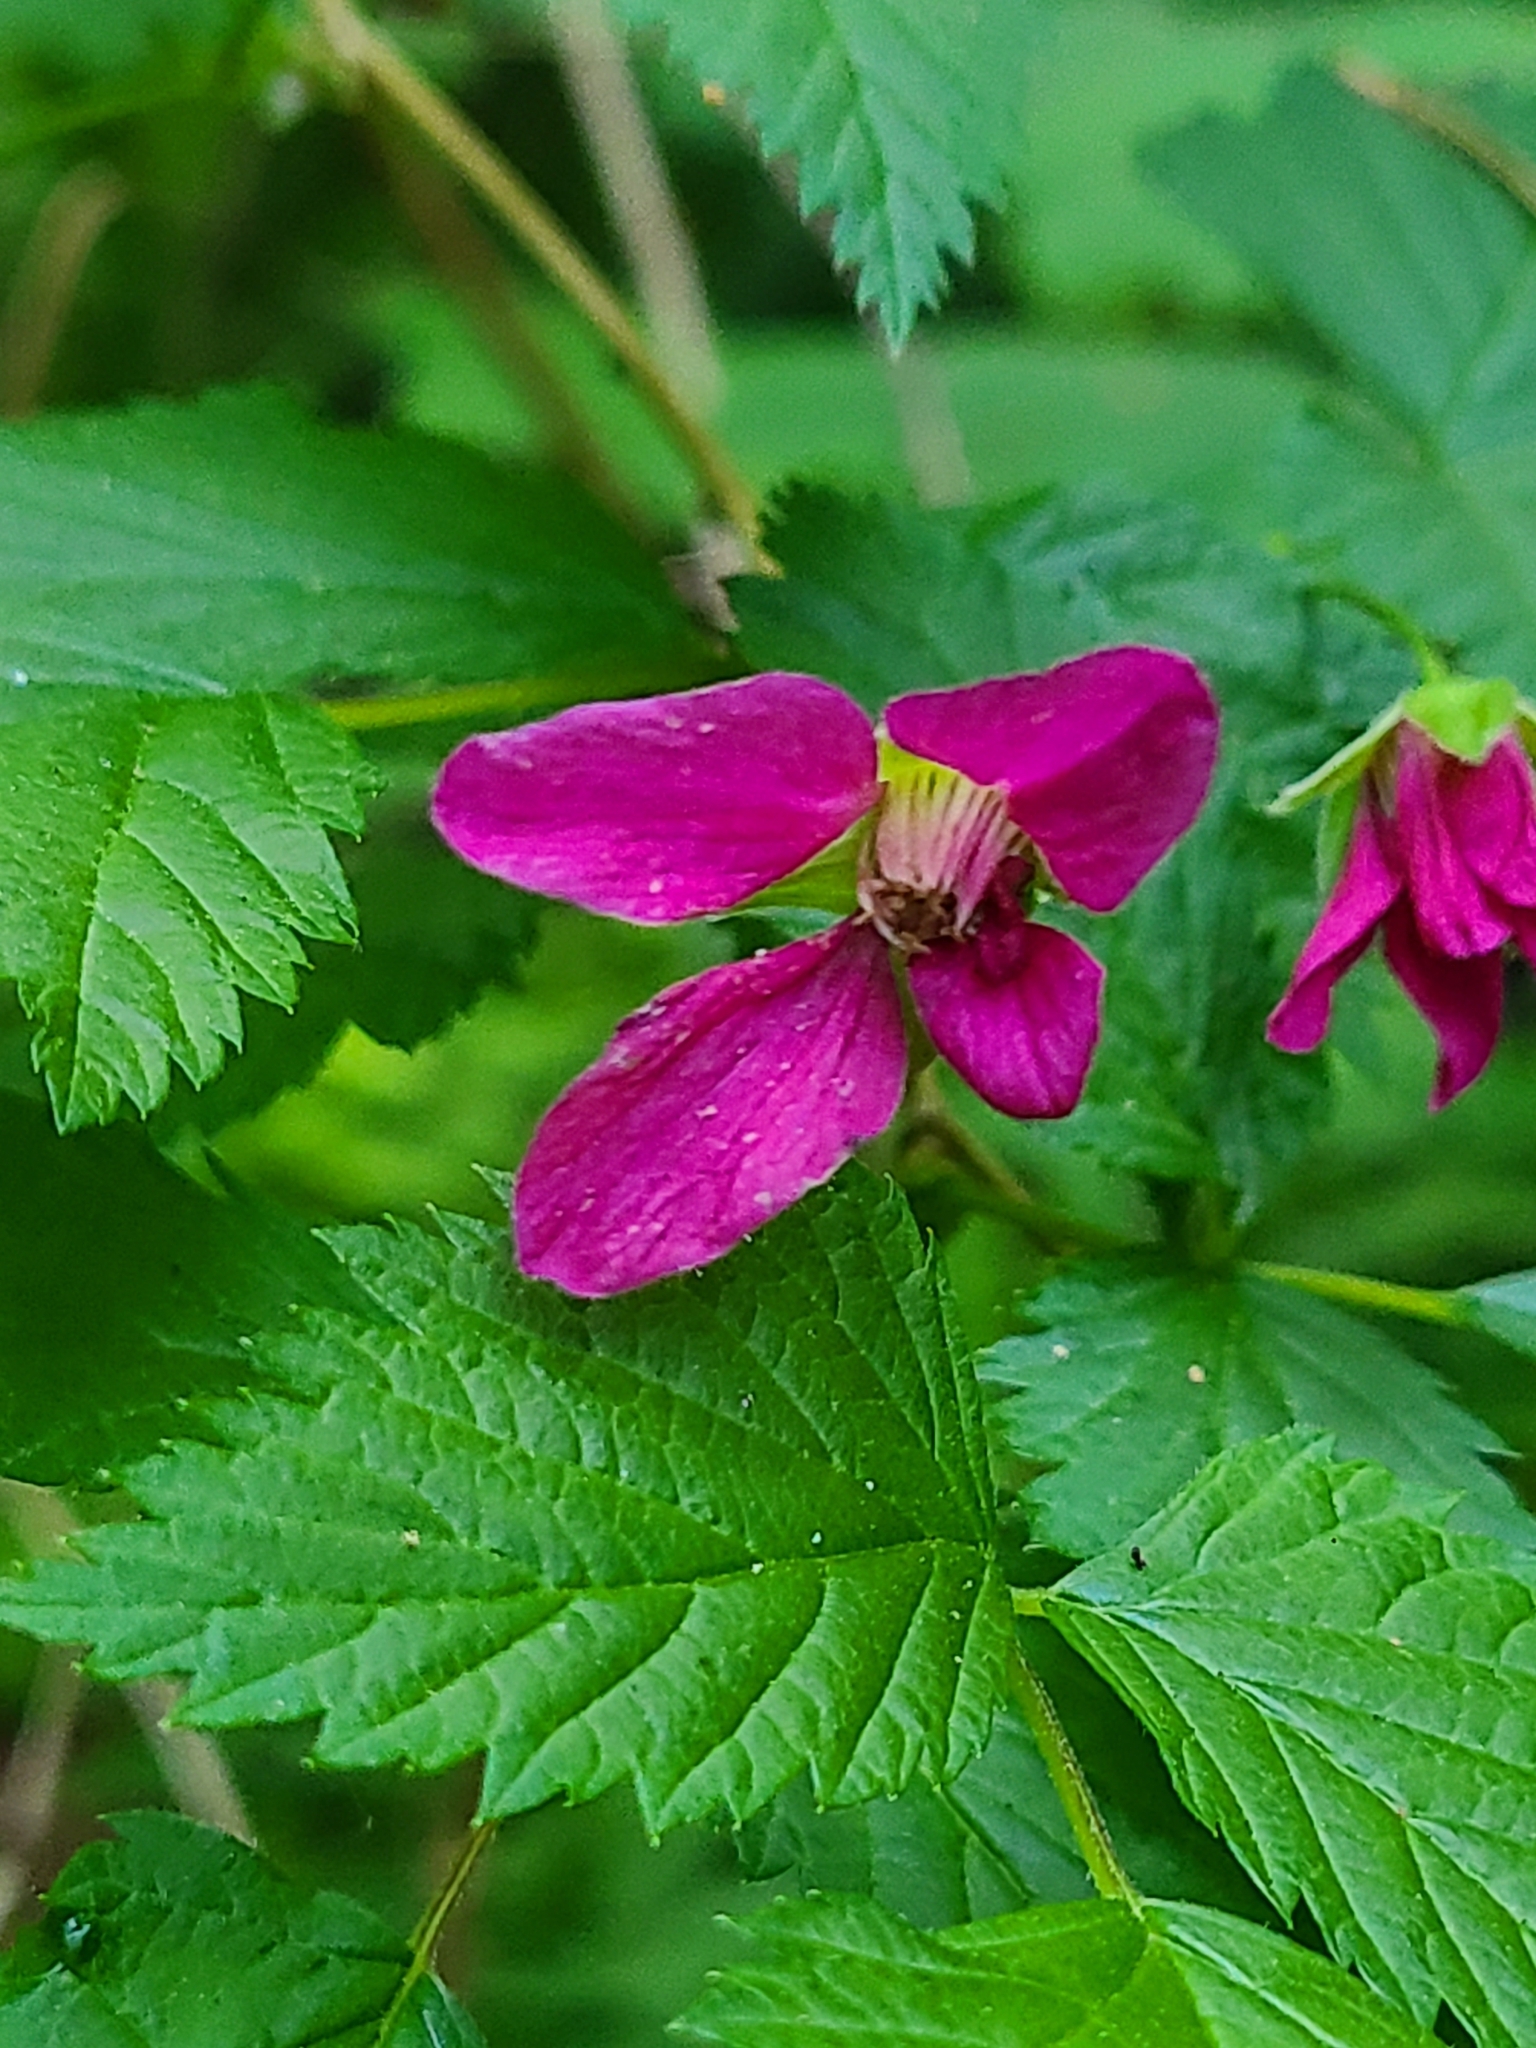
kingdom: Plantae
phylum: Tracheophyta
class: Magnoliopsida
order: Rosales
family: Rosaceae
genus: Rubus
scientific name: Rubus spectabilis
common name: Salmonberry
